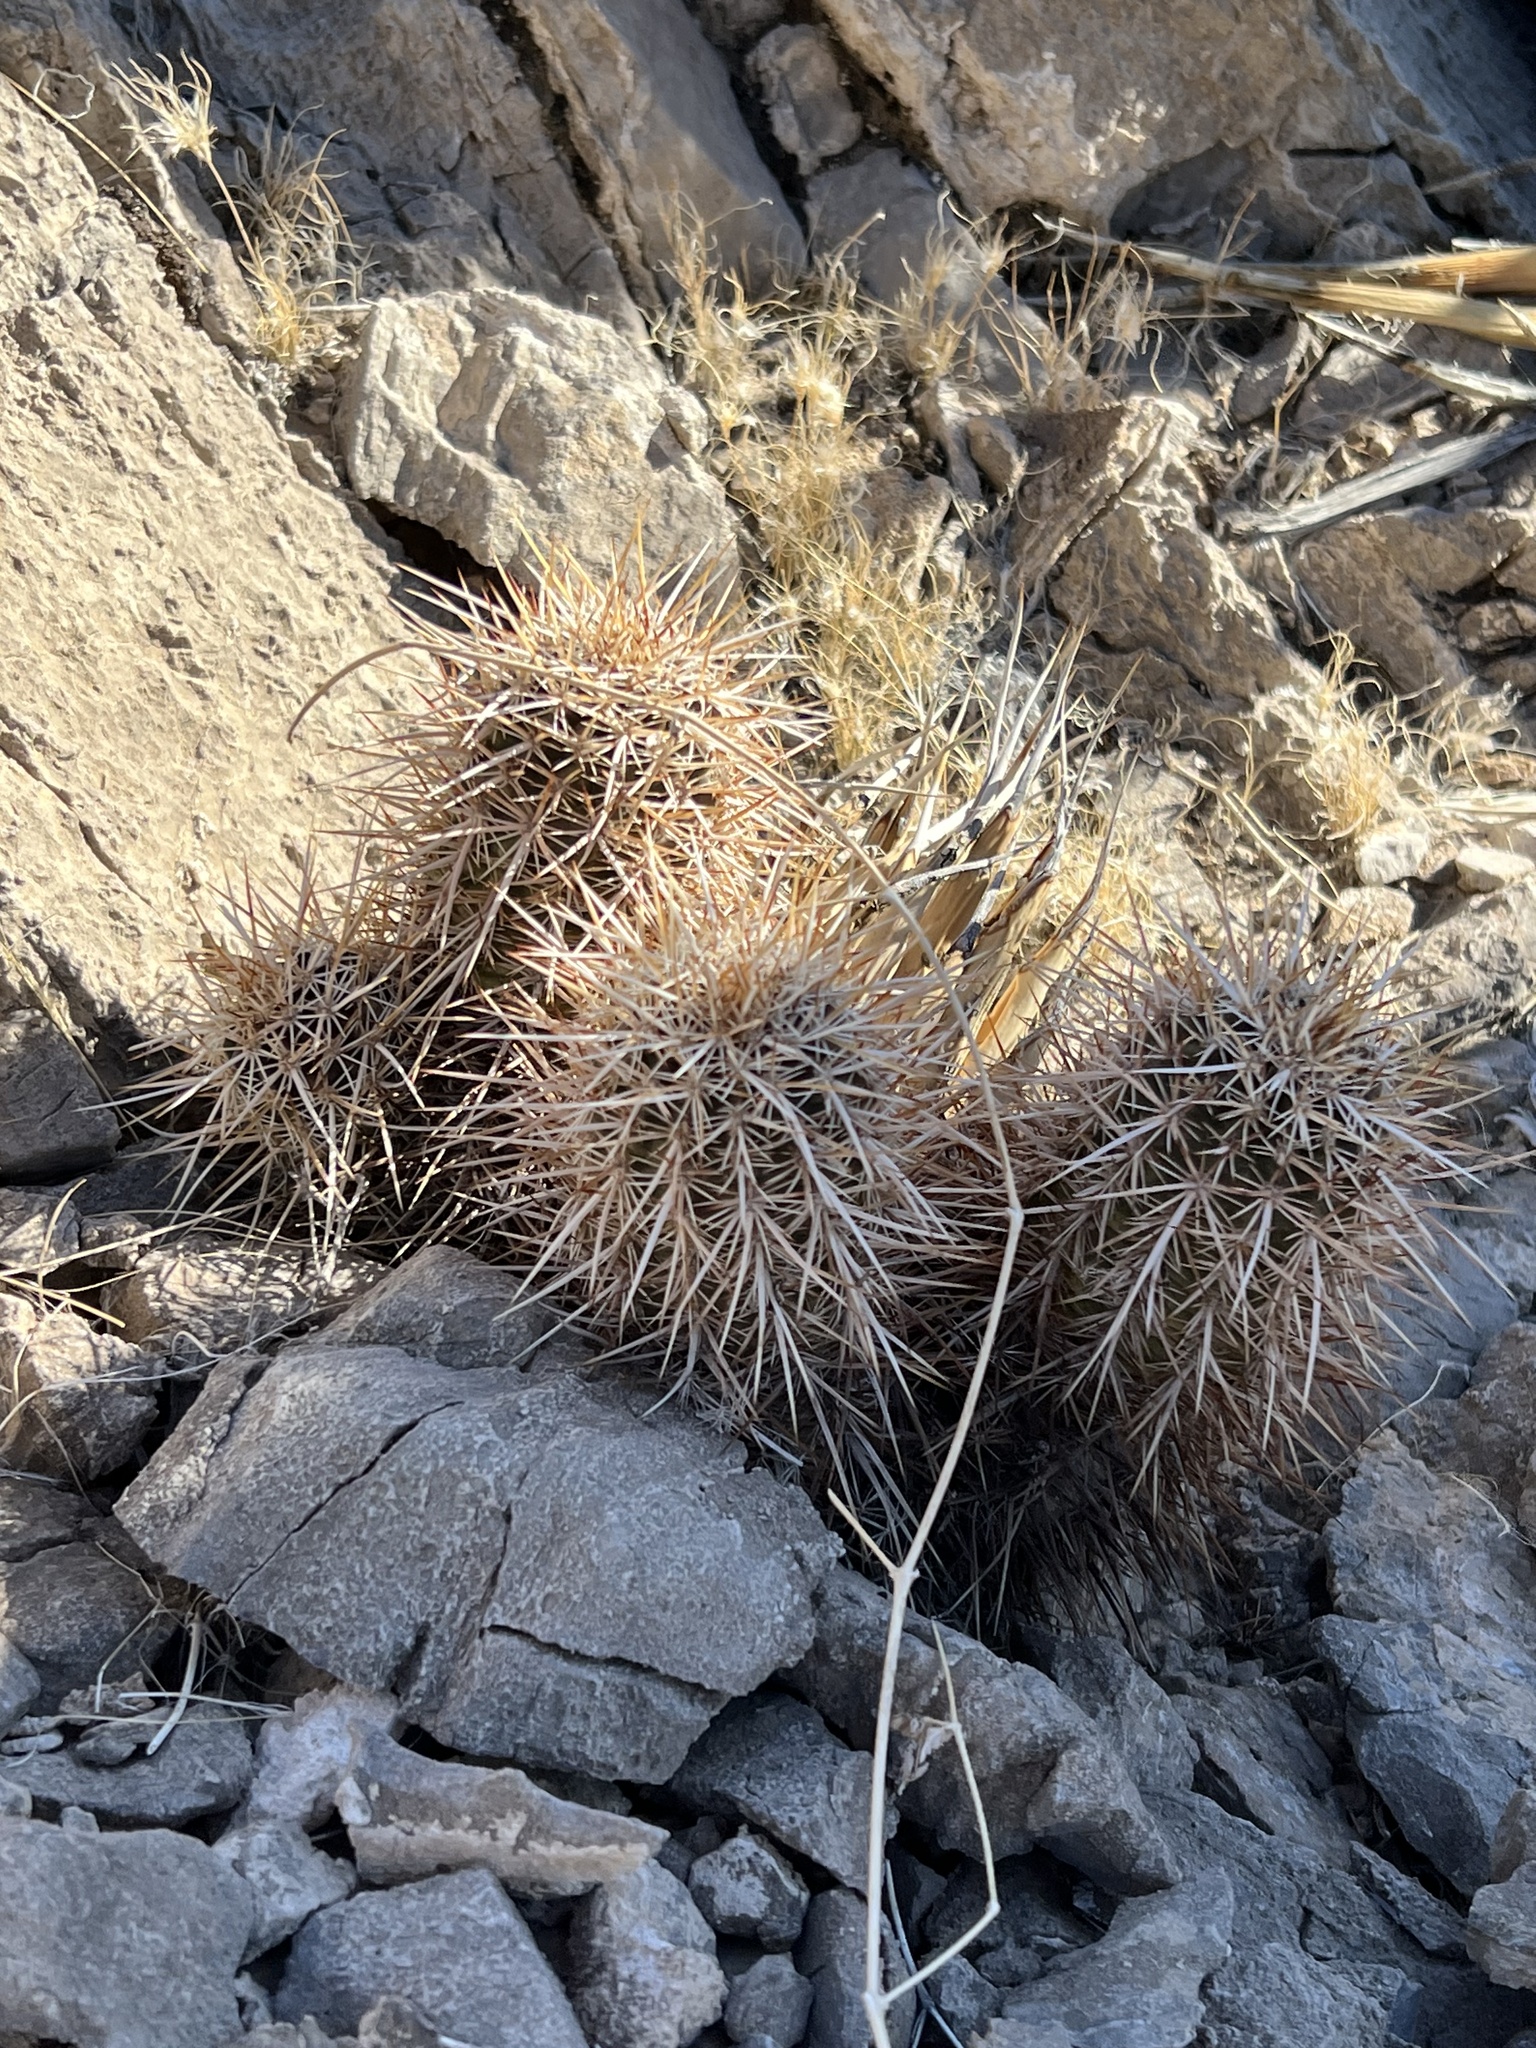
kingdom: Plantae
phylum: Tracheophyta
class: Magnoliopsida
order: Caryophyllales
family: Cactaceae
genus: Echinocereus
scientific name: Echinocereus engelmannii
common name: Engelmann's hedgehog cactus
